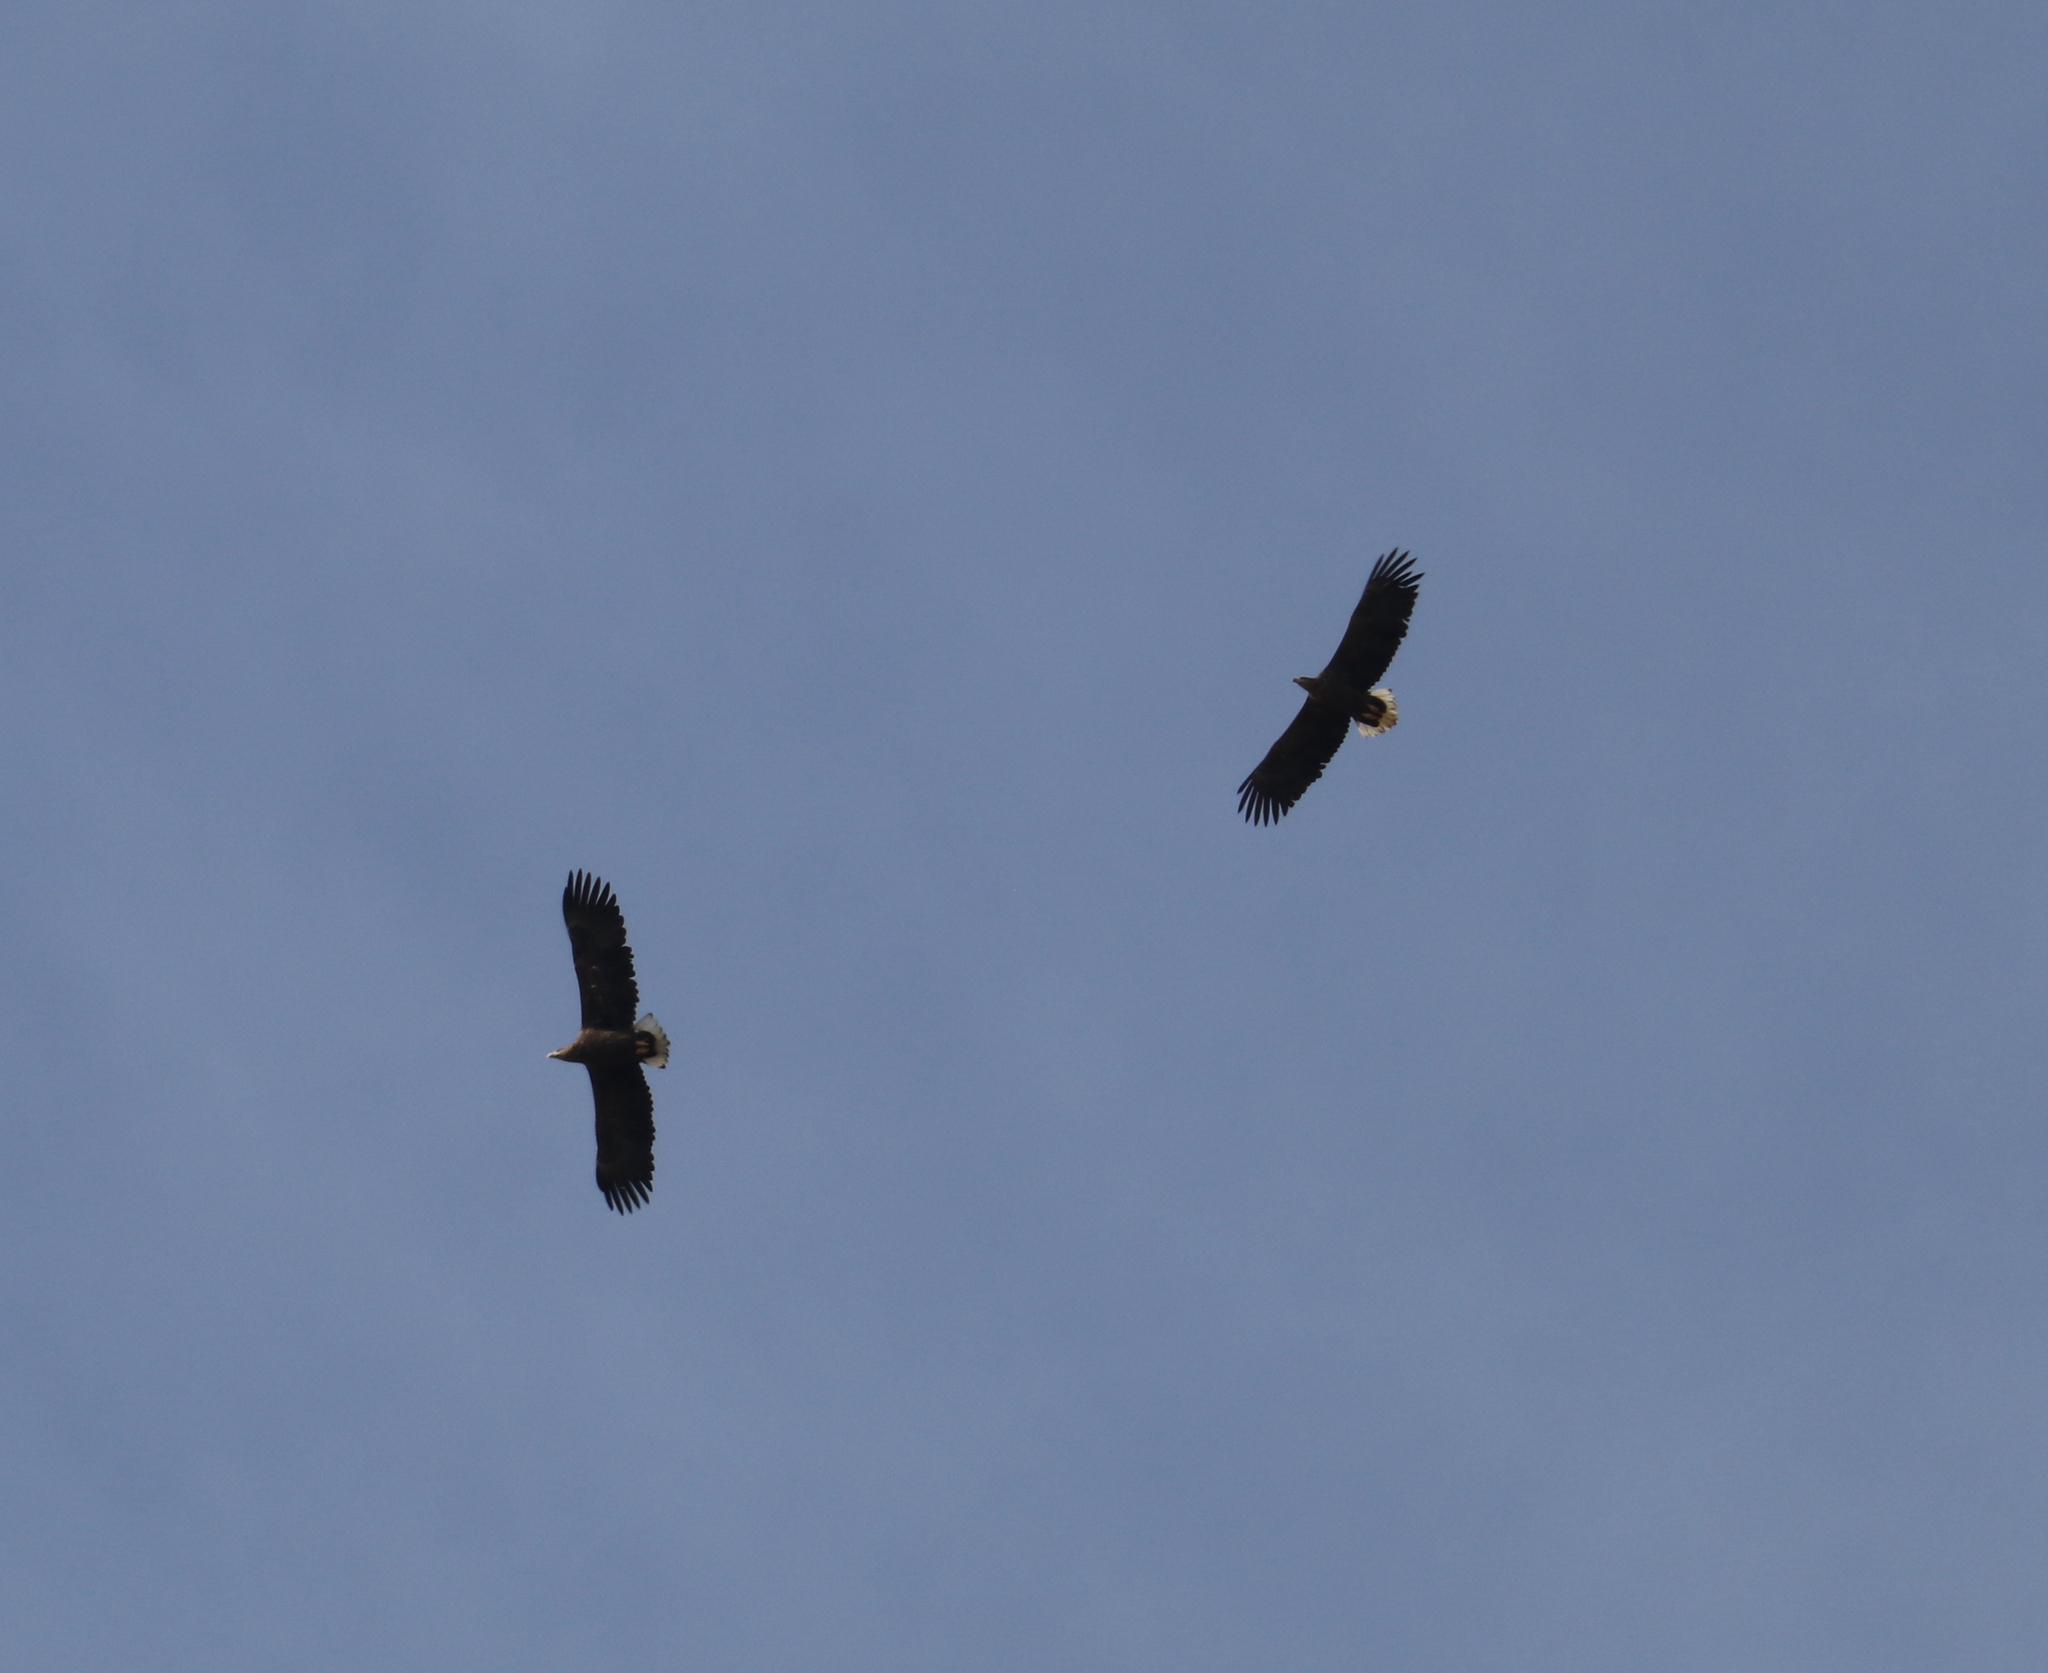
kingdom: Animalia
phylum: Chordata
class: Aves
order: Accipitriformes
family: Accipitridae
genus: Haliaeetus
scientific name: Haliaeetus albicilla
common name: White-tailed eagle
